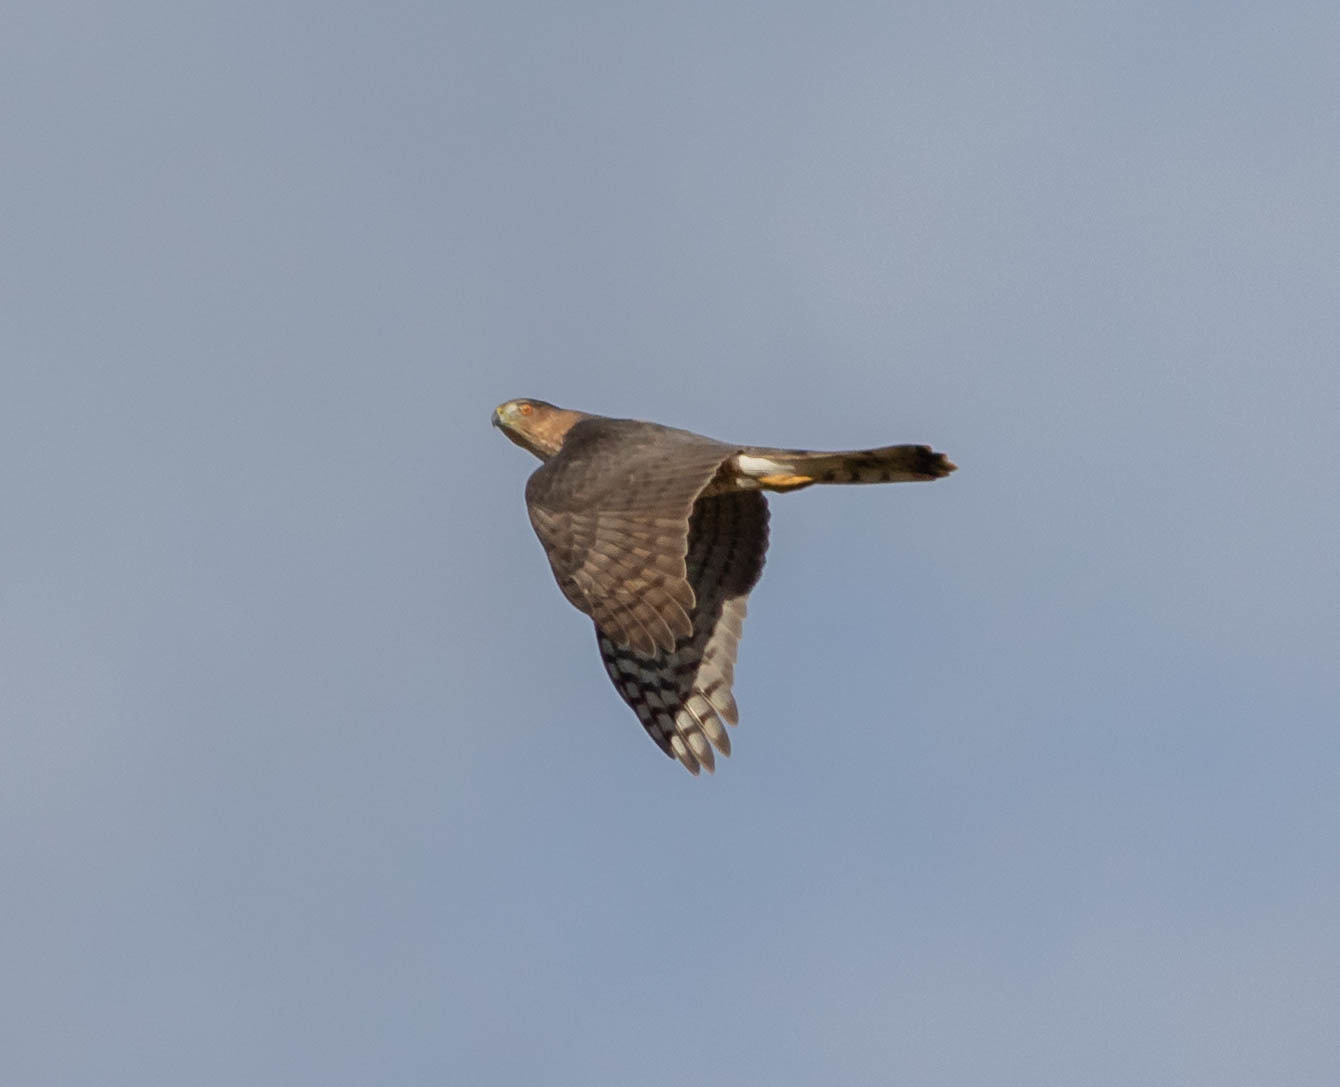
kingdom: Animalia
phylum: Chordata
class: Aves
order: Accipitriformes
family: Accipitridae
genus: Accipiter
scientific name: Accipiter cooperii
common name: Cooper's hawk
